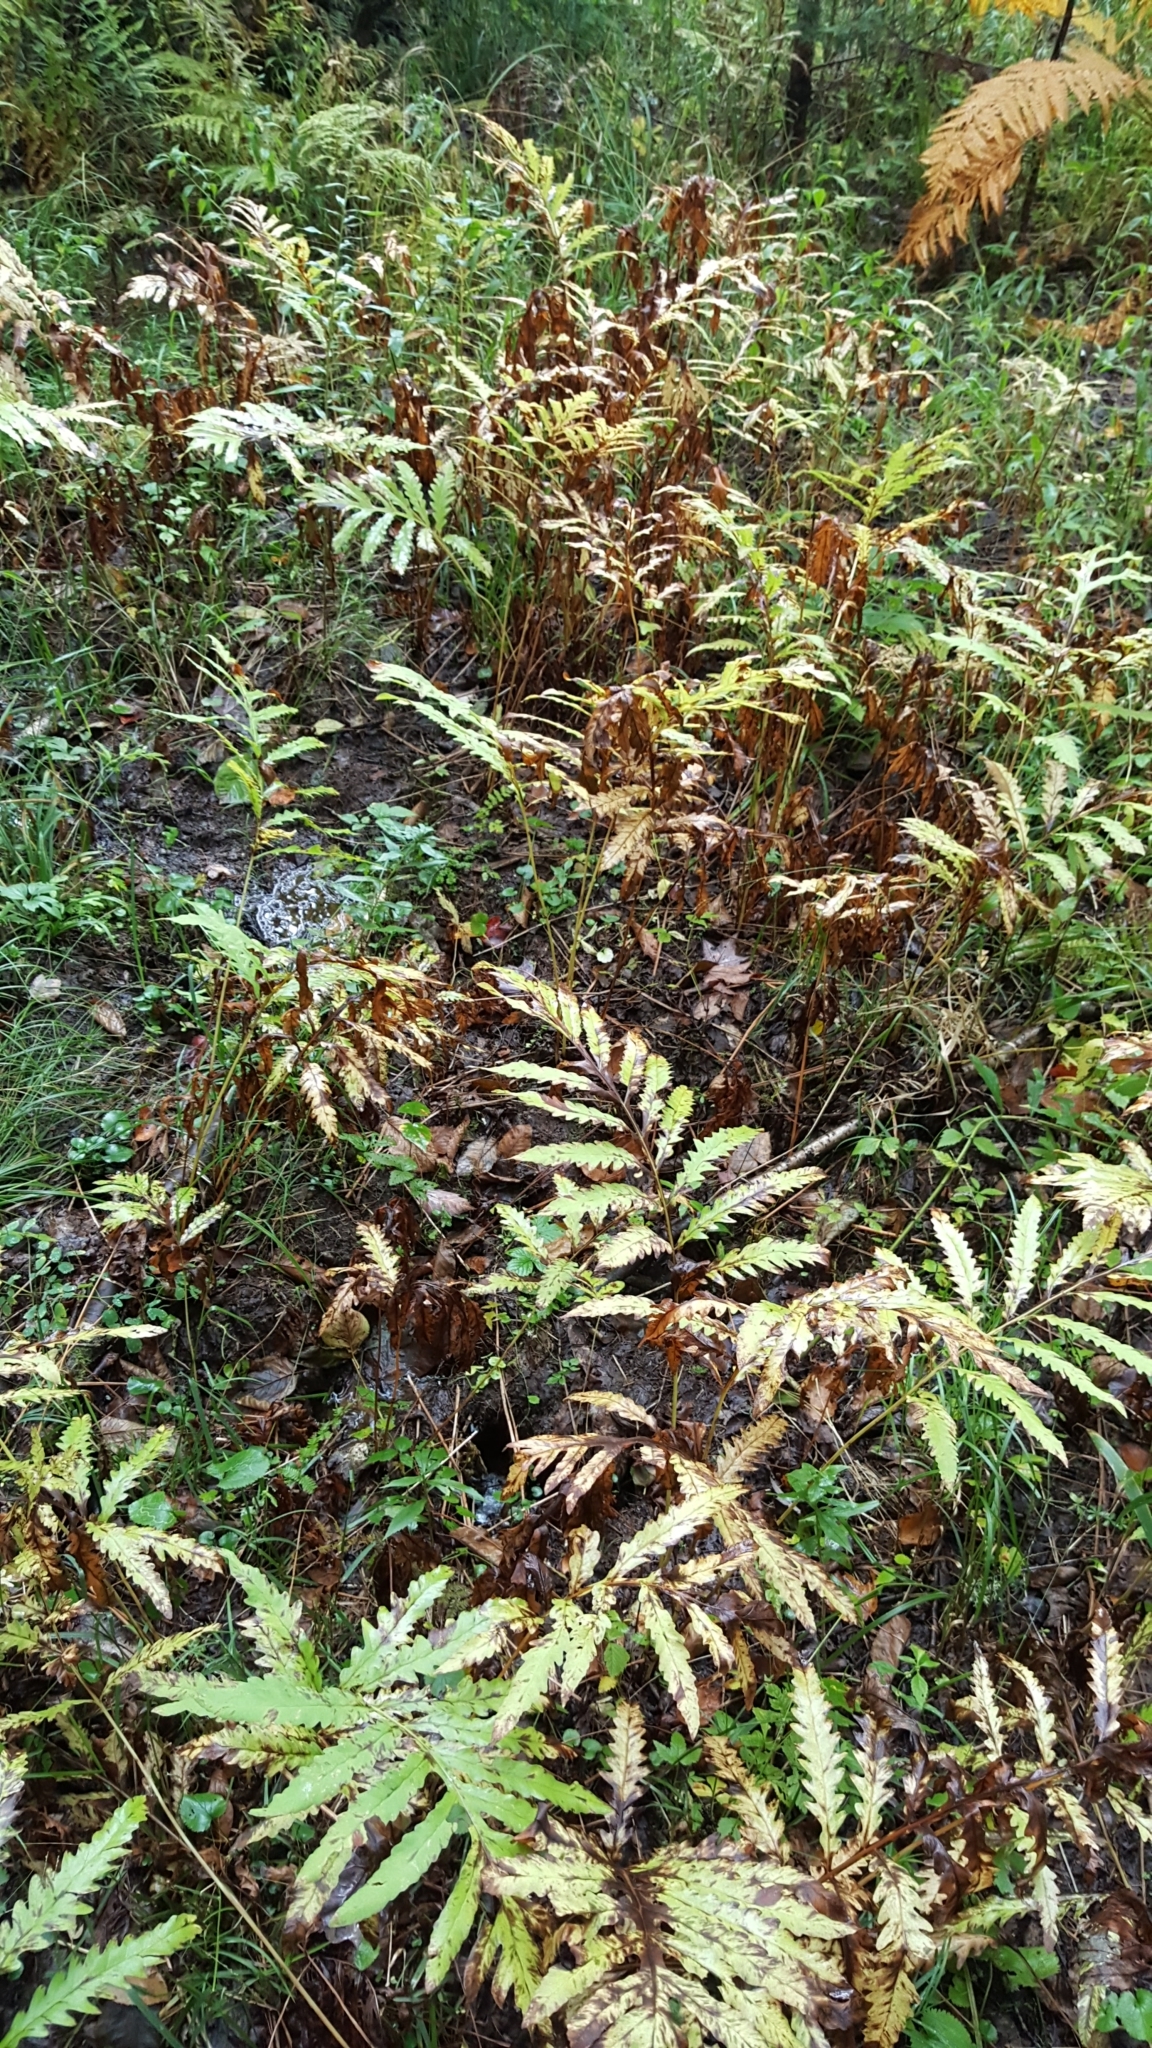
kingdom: Plantae
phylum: Tracheophyta
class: Polypodiopsida
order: Polypodiales
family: Onocleaceae
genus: Onoclea
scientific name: Onoclea sensibilis
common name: Sensitive fern
